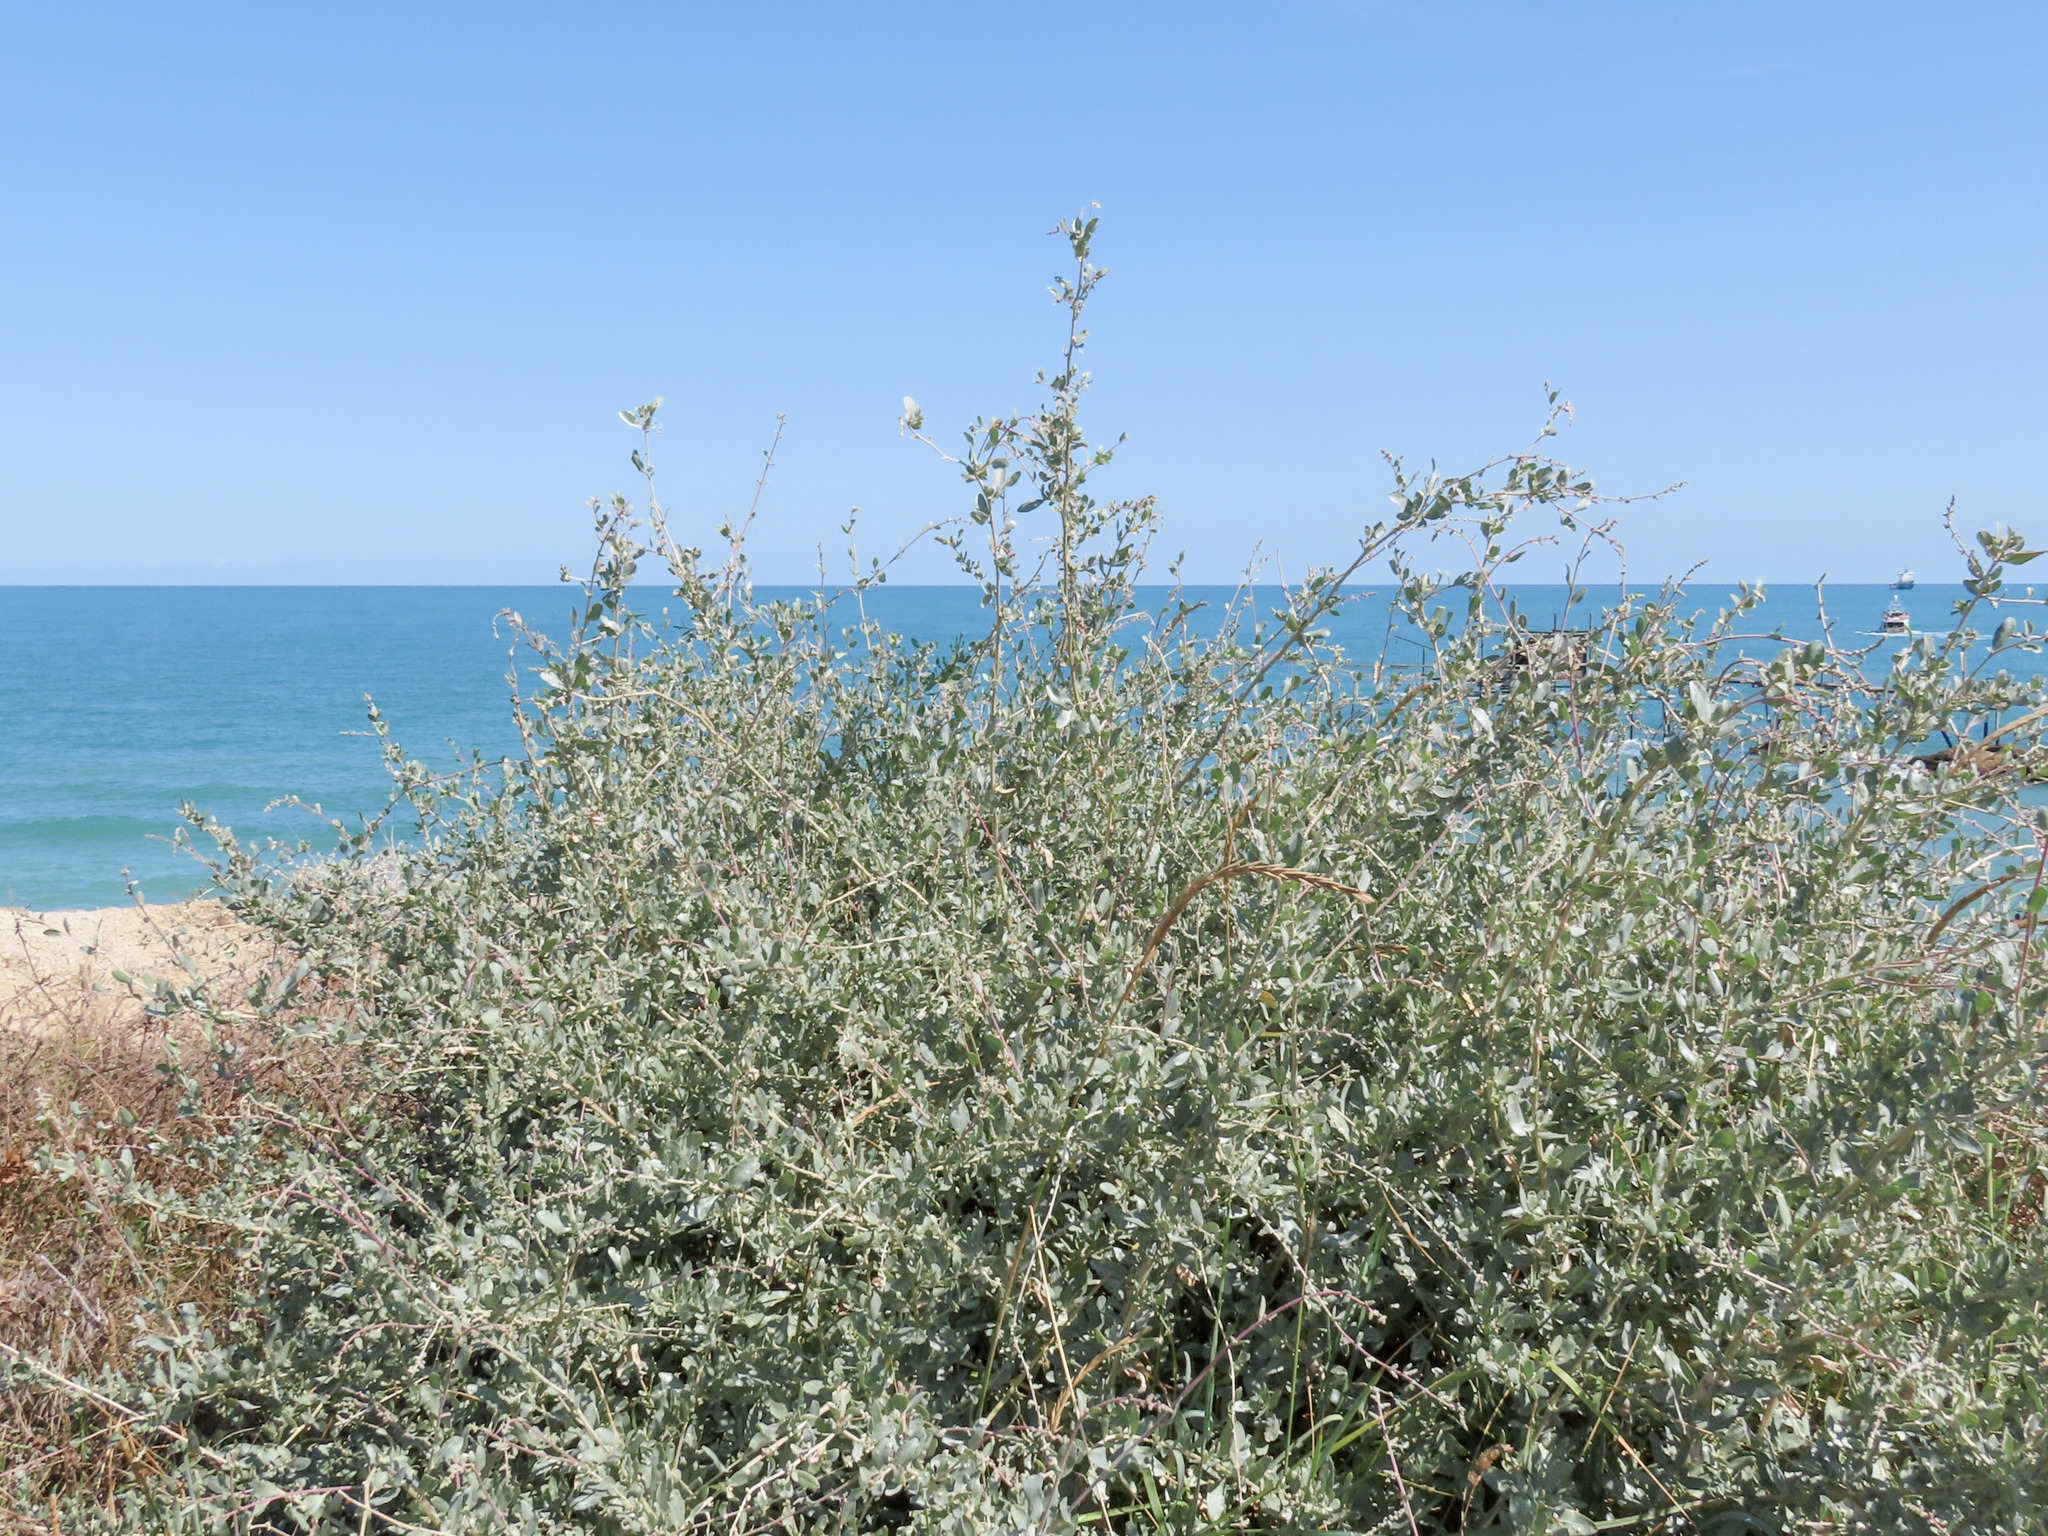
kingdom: Plantae
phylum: Tracheophyta
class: Magnoliopsida
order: Caryophyllales
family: Amaranthaceae
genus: Atriplex
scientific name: Atriplex halimus
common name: Shrubby orache
